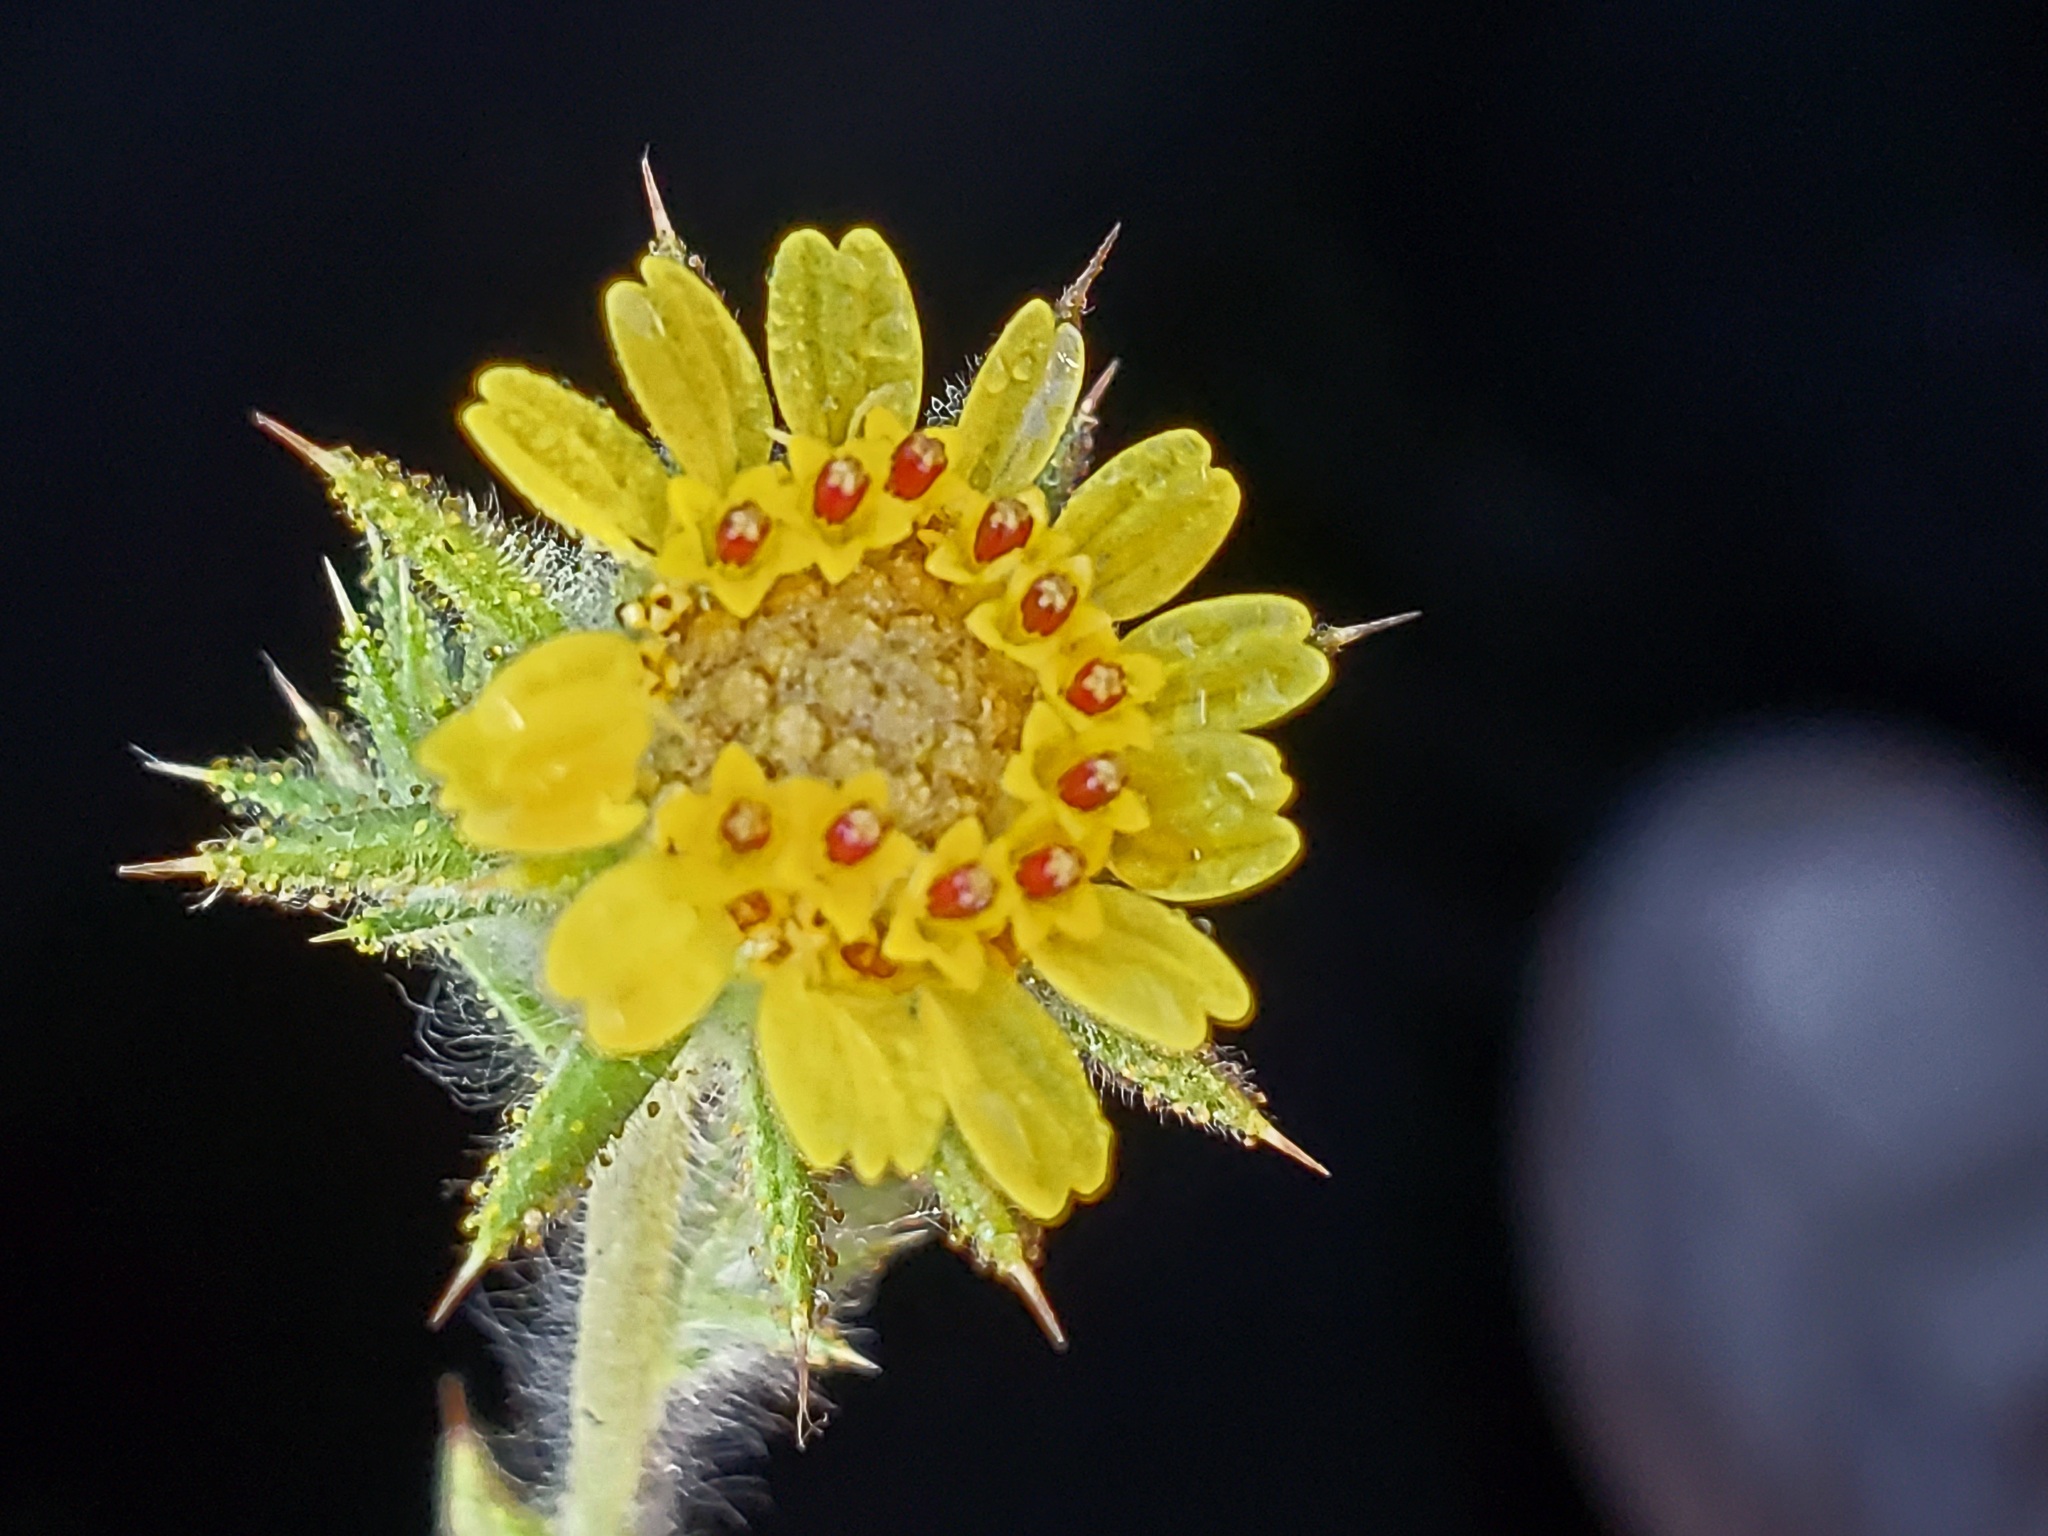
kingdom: Plantae
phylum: Tracheophyta
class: Magnoliopsida
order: Asterales
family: Asteraceae
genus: Centromadia
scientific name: Centromadia fitchii
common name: Fitch's spikeweed
